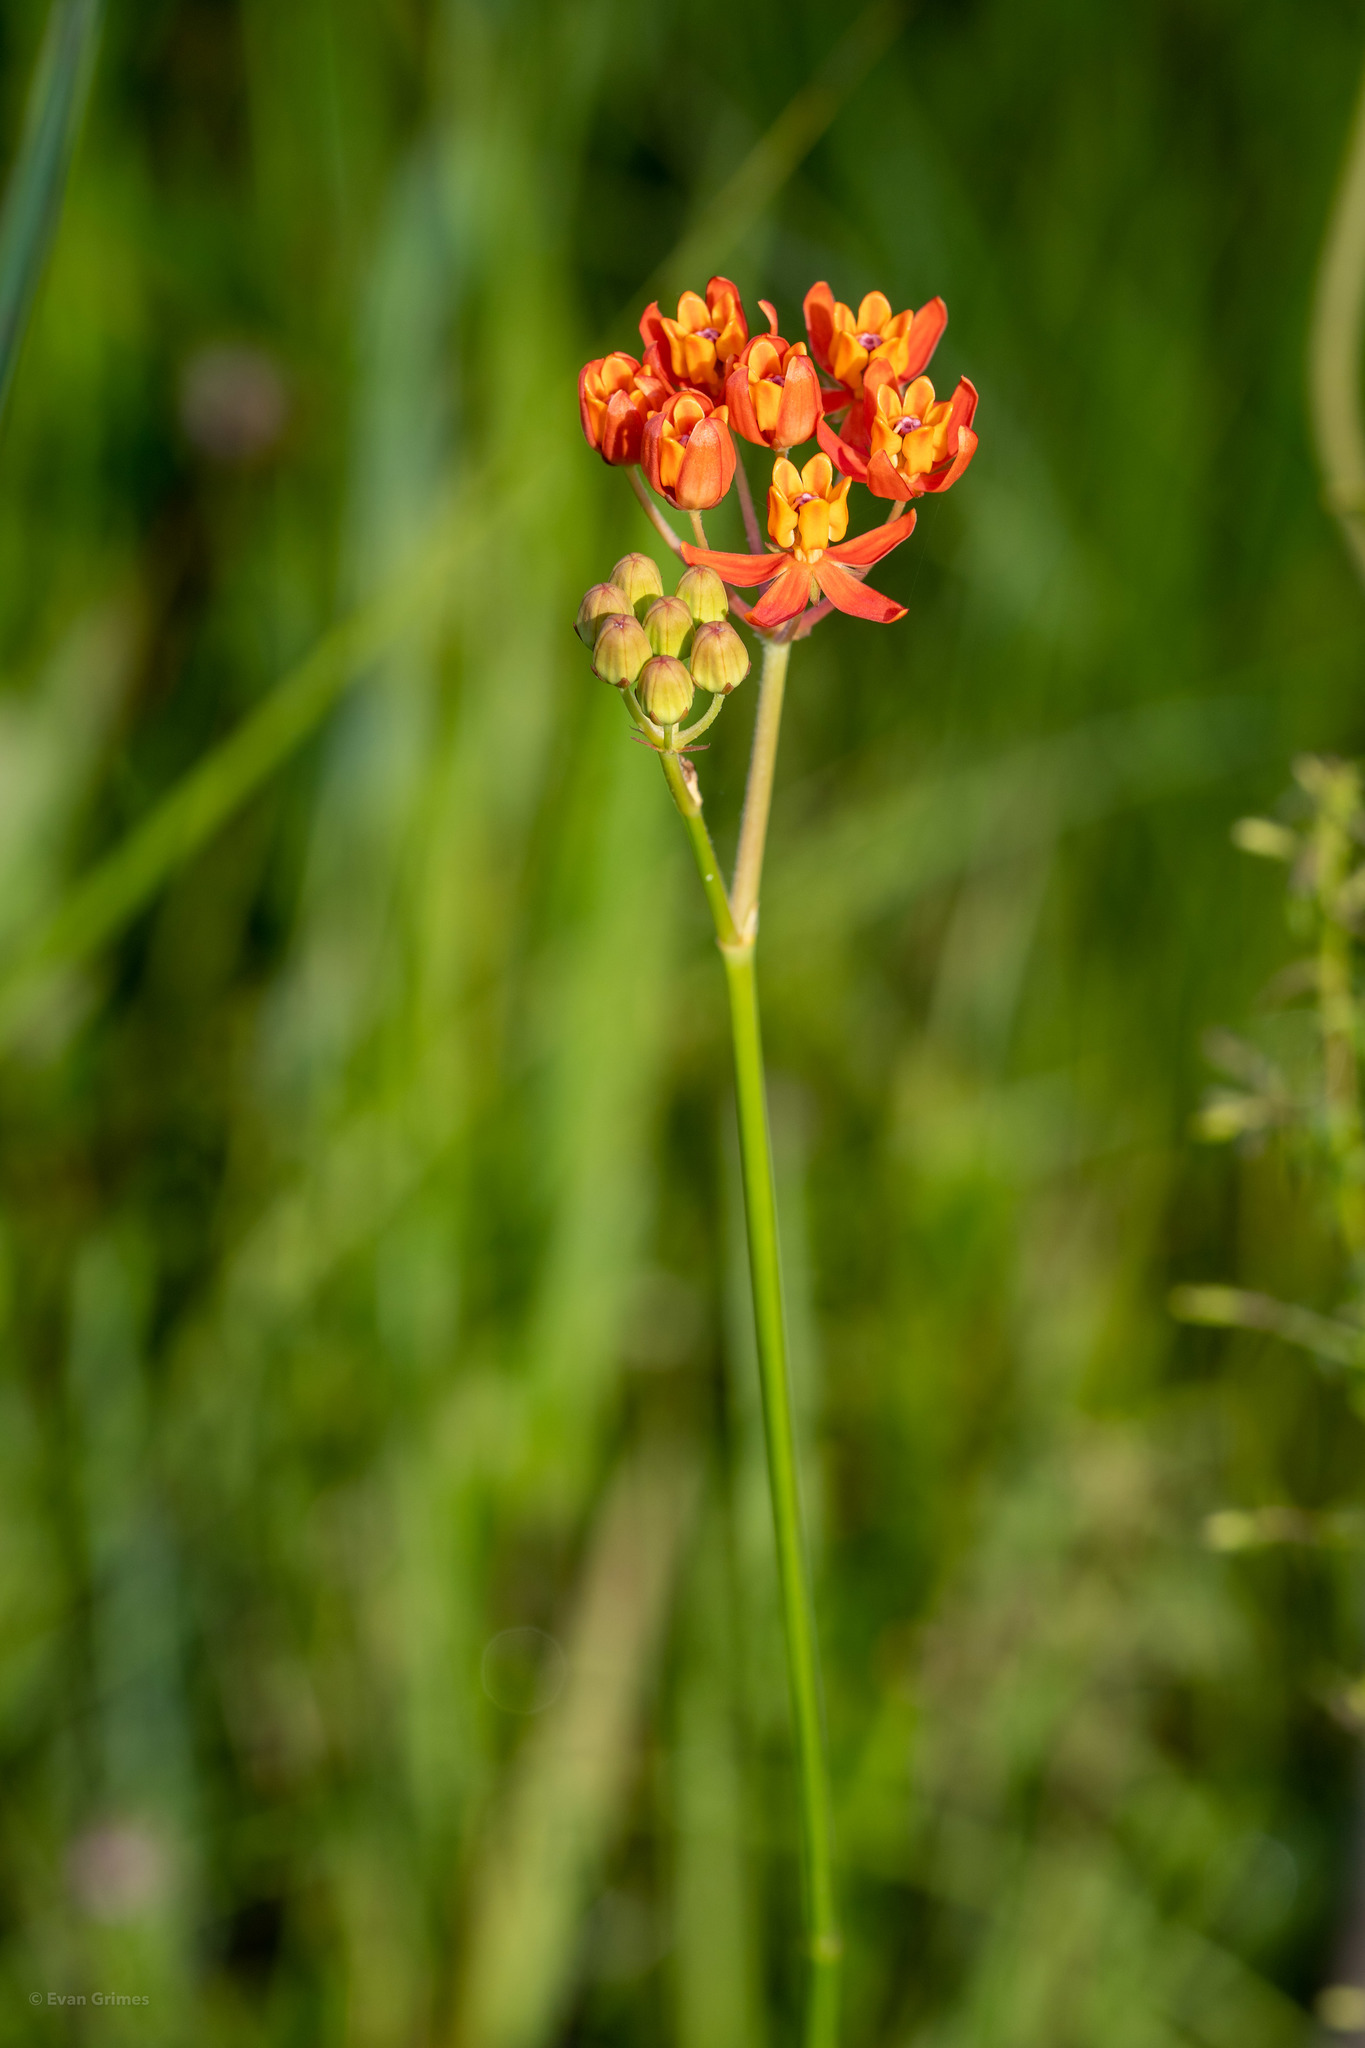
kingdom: Plantae
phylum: Tracheophyta
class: Magnoliopsida
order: Gentianales
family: Apocynaceae
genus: Asclepias
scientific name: Asclepias lanceolata
